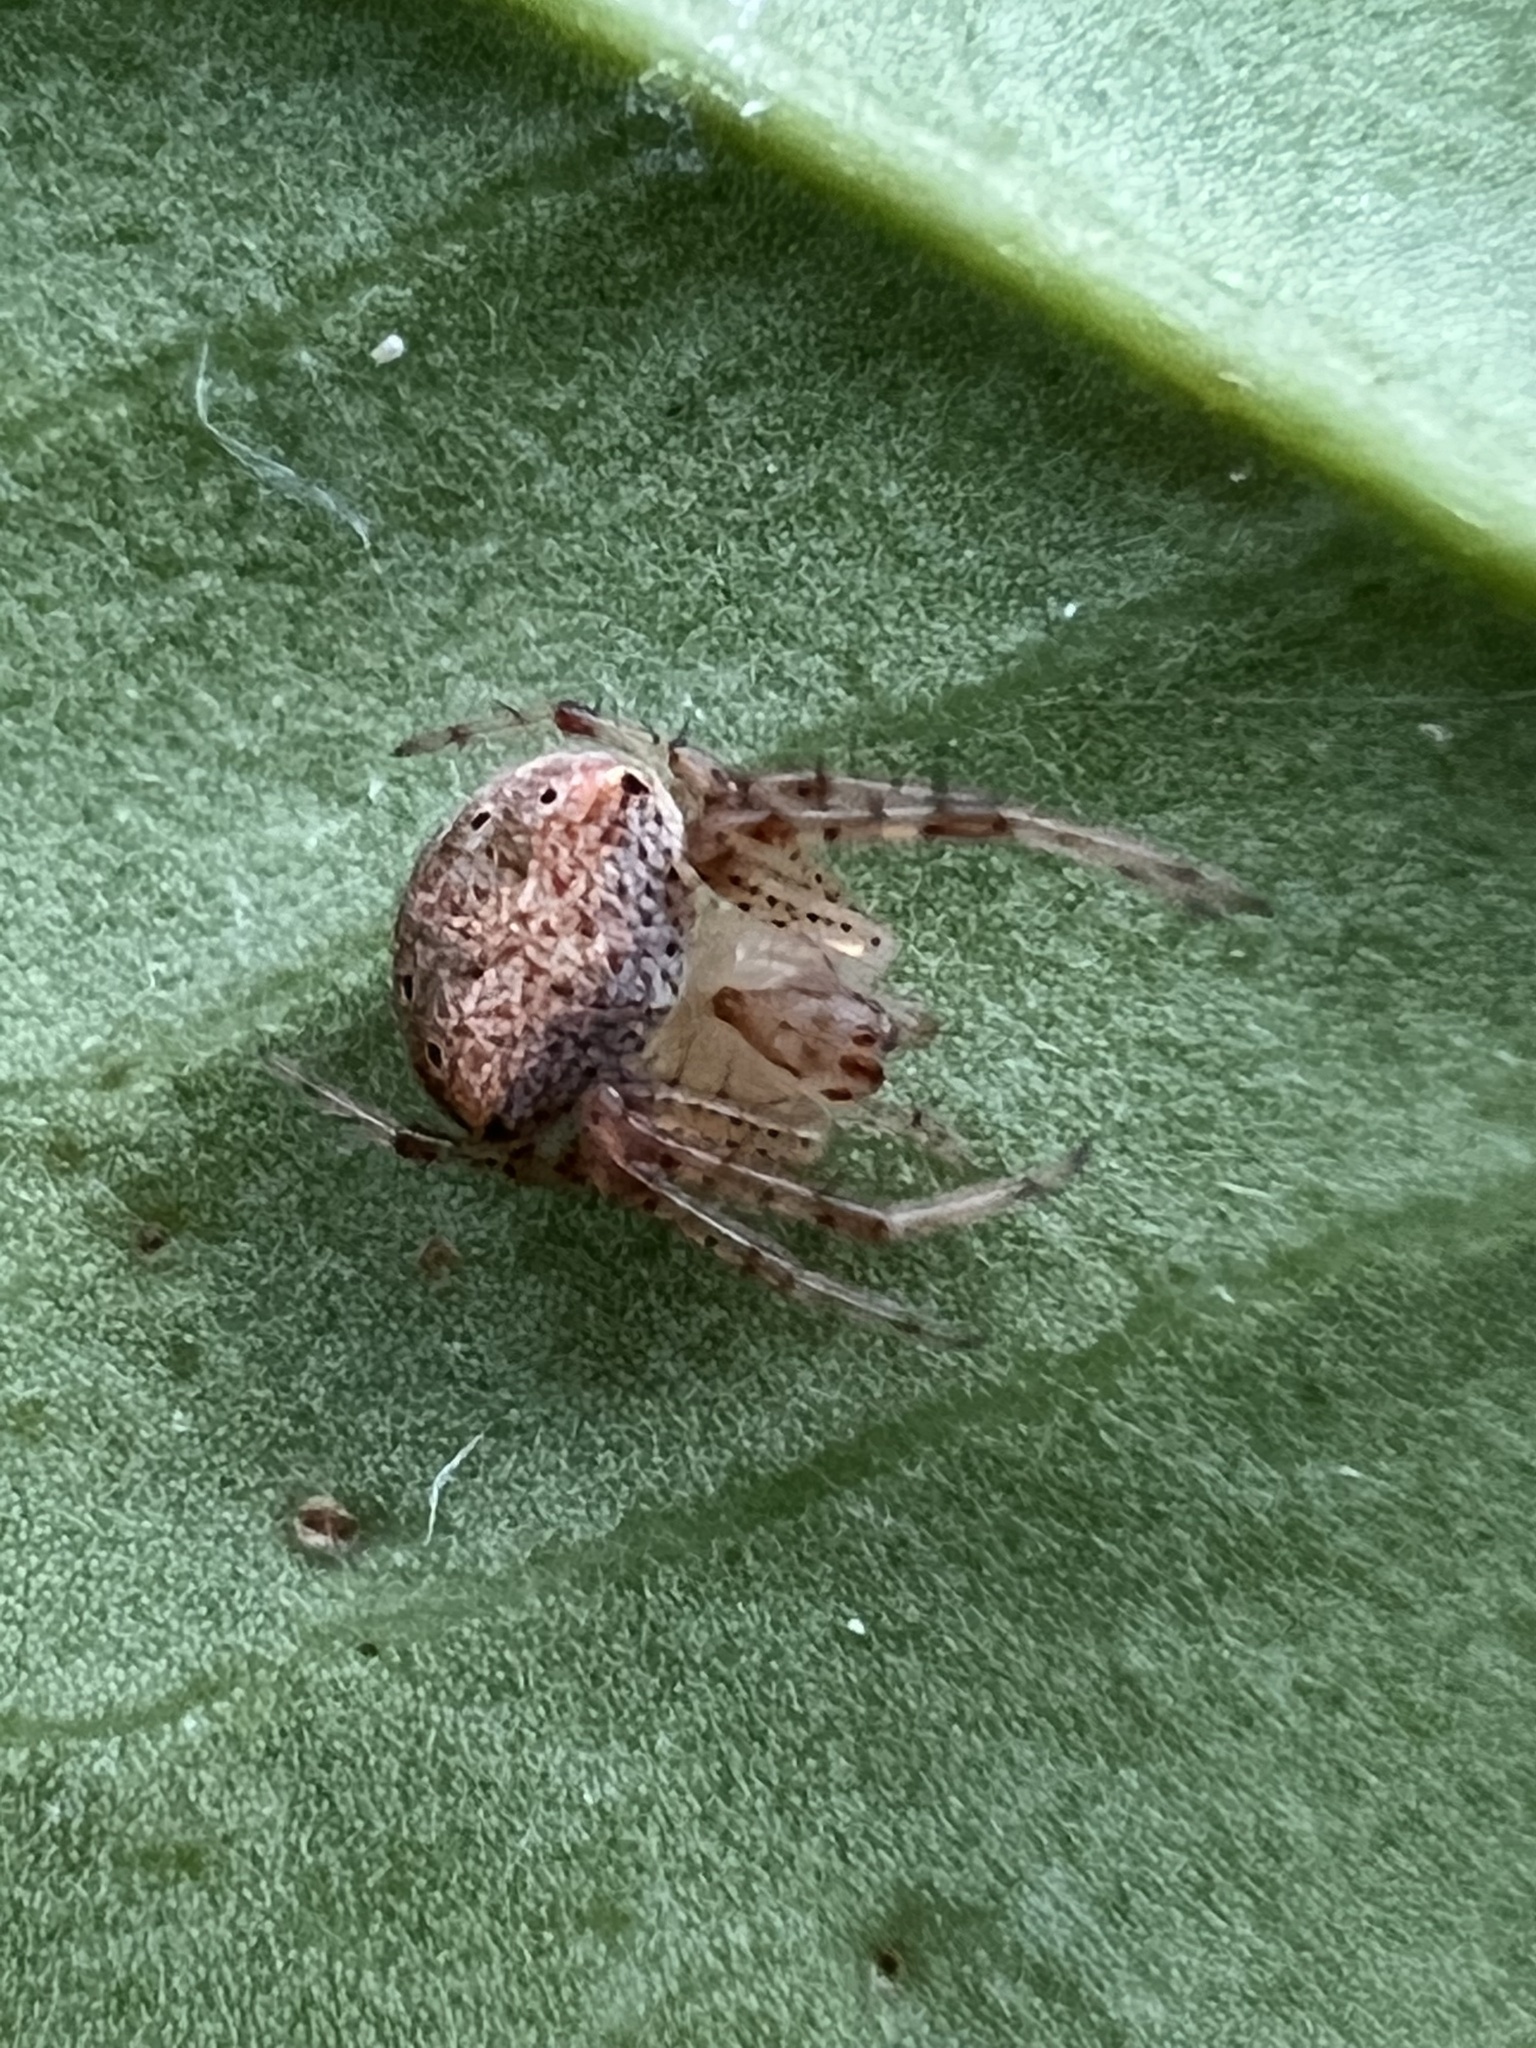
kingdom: Animalia
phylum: Arthropoda
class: Arachnida
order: Araneae
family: Araneidae
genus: Araneus
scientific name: Araneus miniatus
